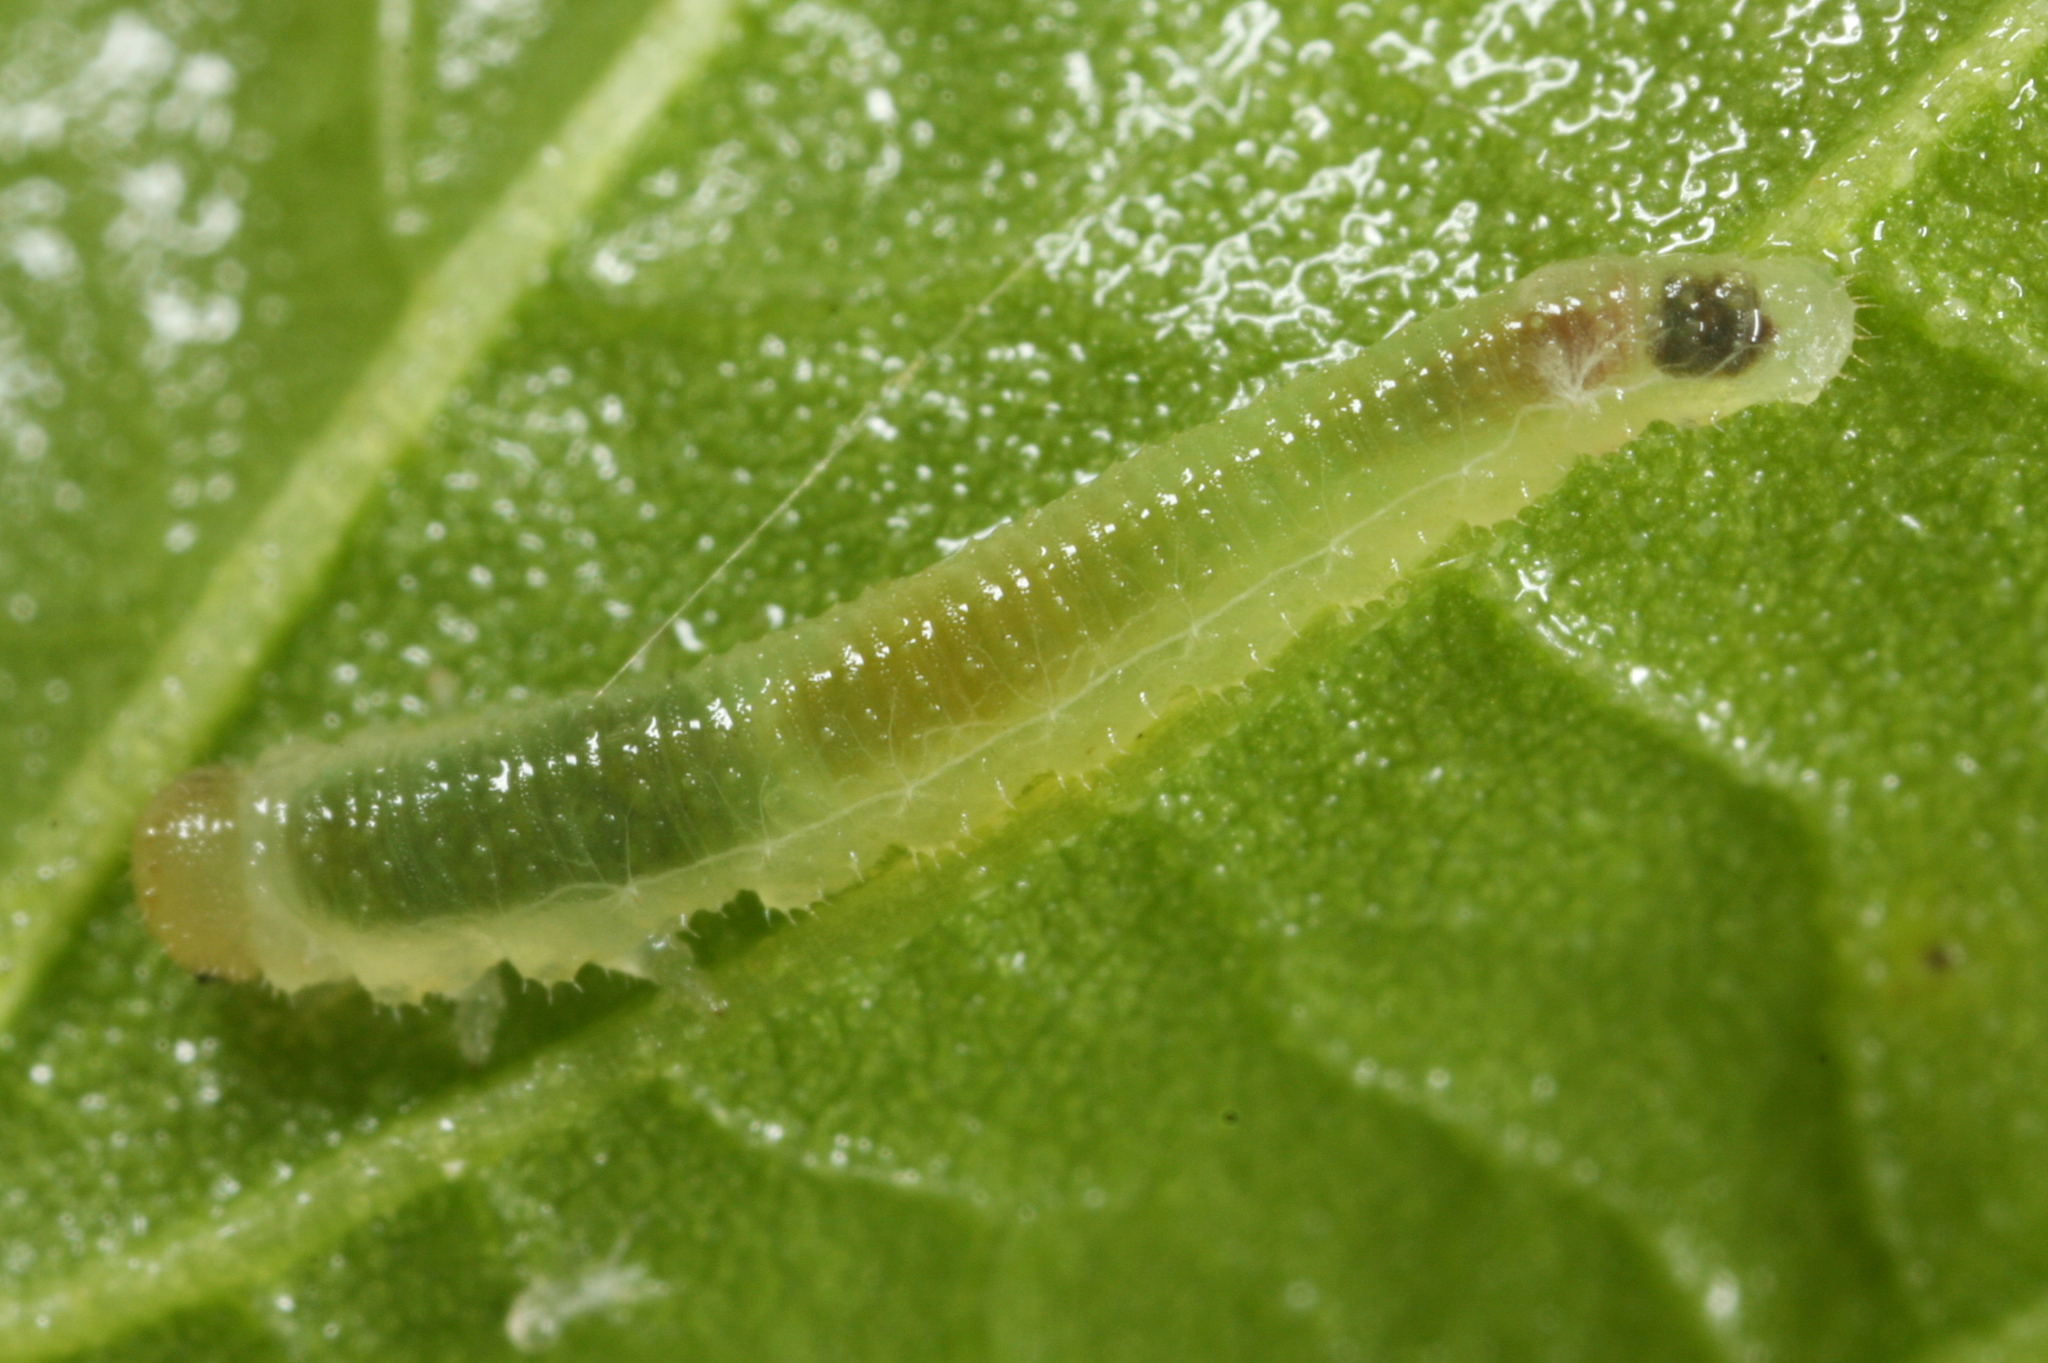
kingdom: Animalia
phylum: Arthropoda
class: Insecta
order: Hymenoptera
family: Tenthredinidae
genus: Nematinus
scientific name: Nematinus fuscipennis
